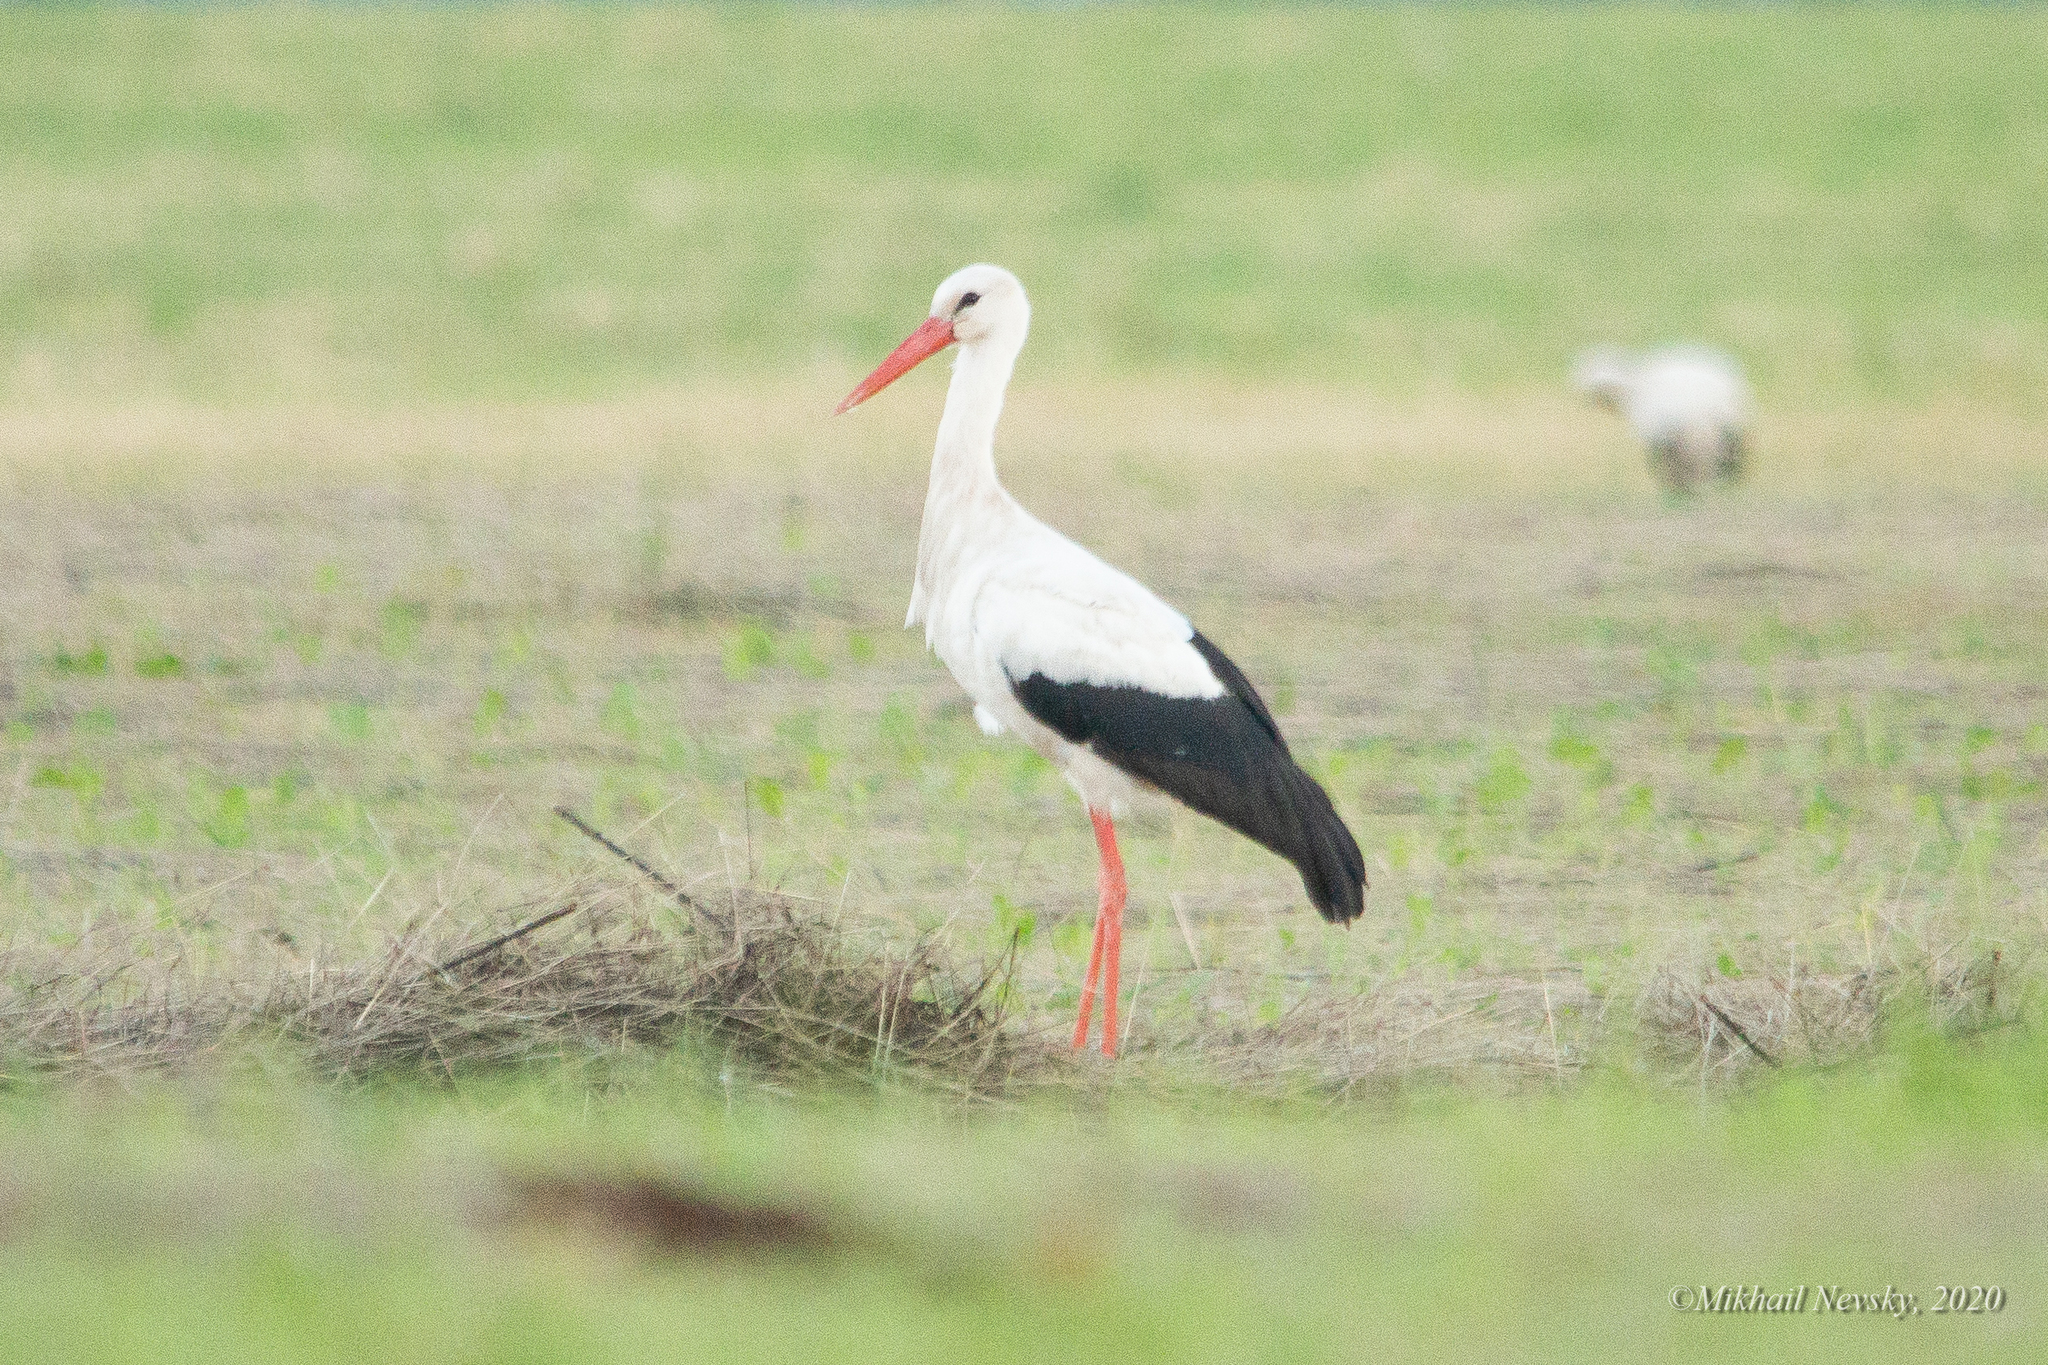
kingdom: Animalia
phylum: Chordata
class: Aves
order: Ciconiiformes
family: Ciconiidae
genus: Ciconia
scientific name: Ciconia ciconia
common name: White stork
